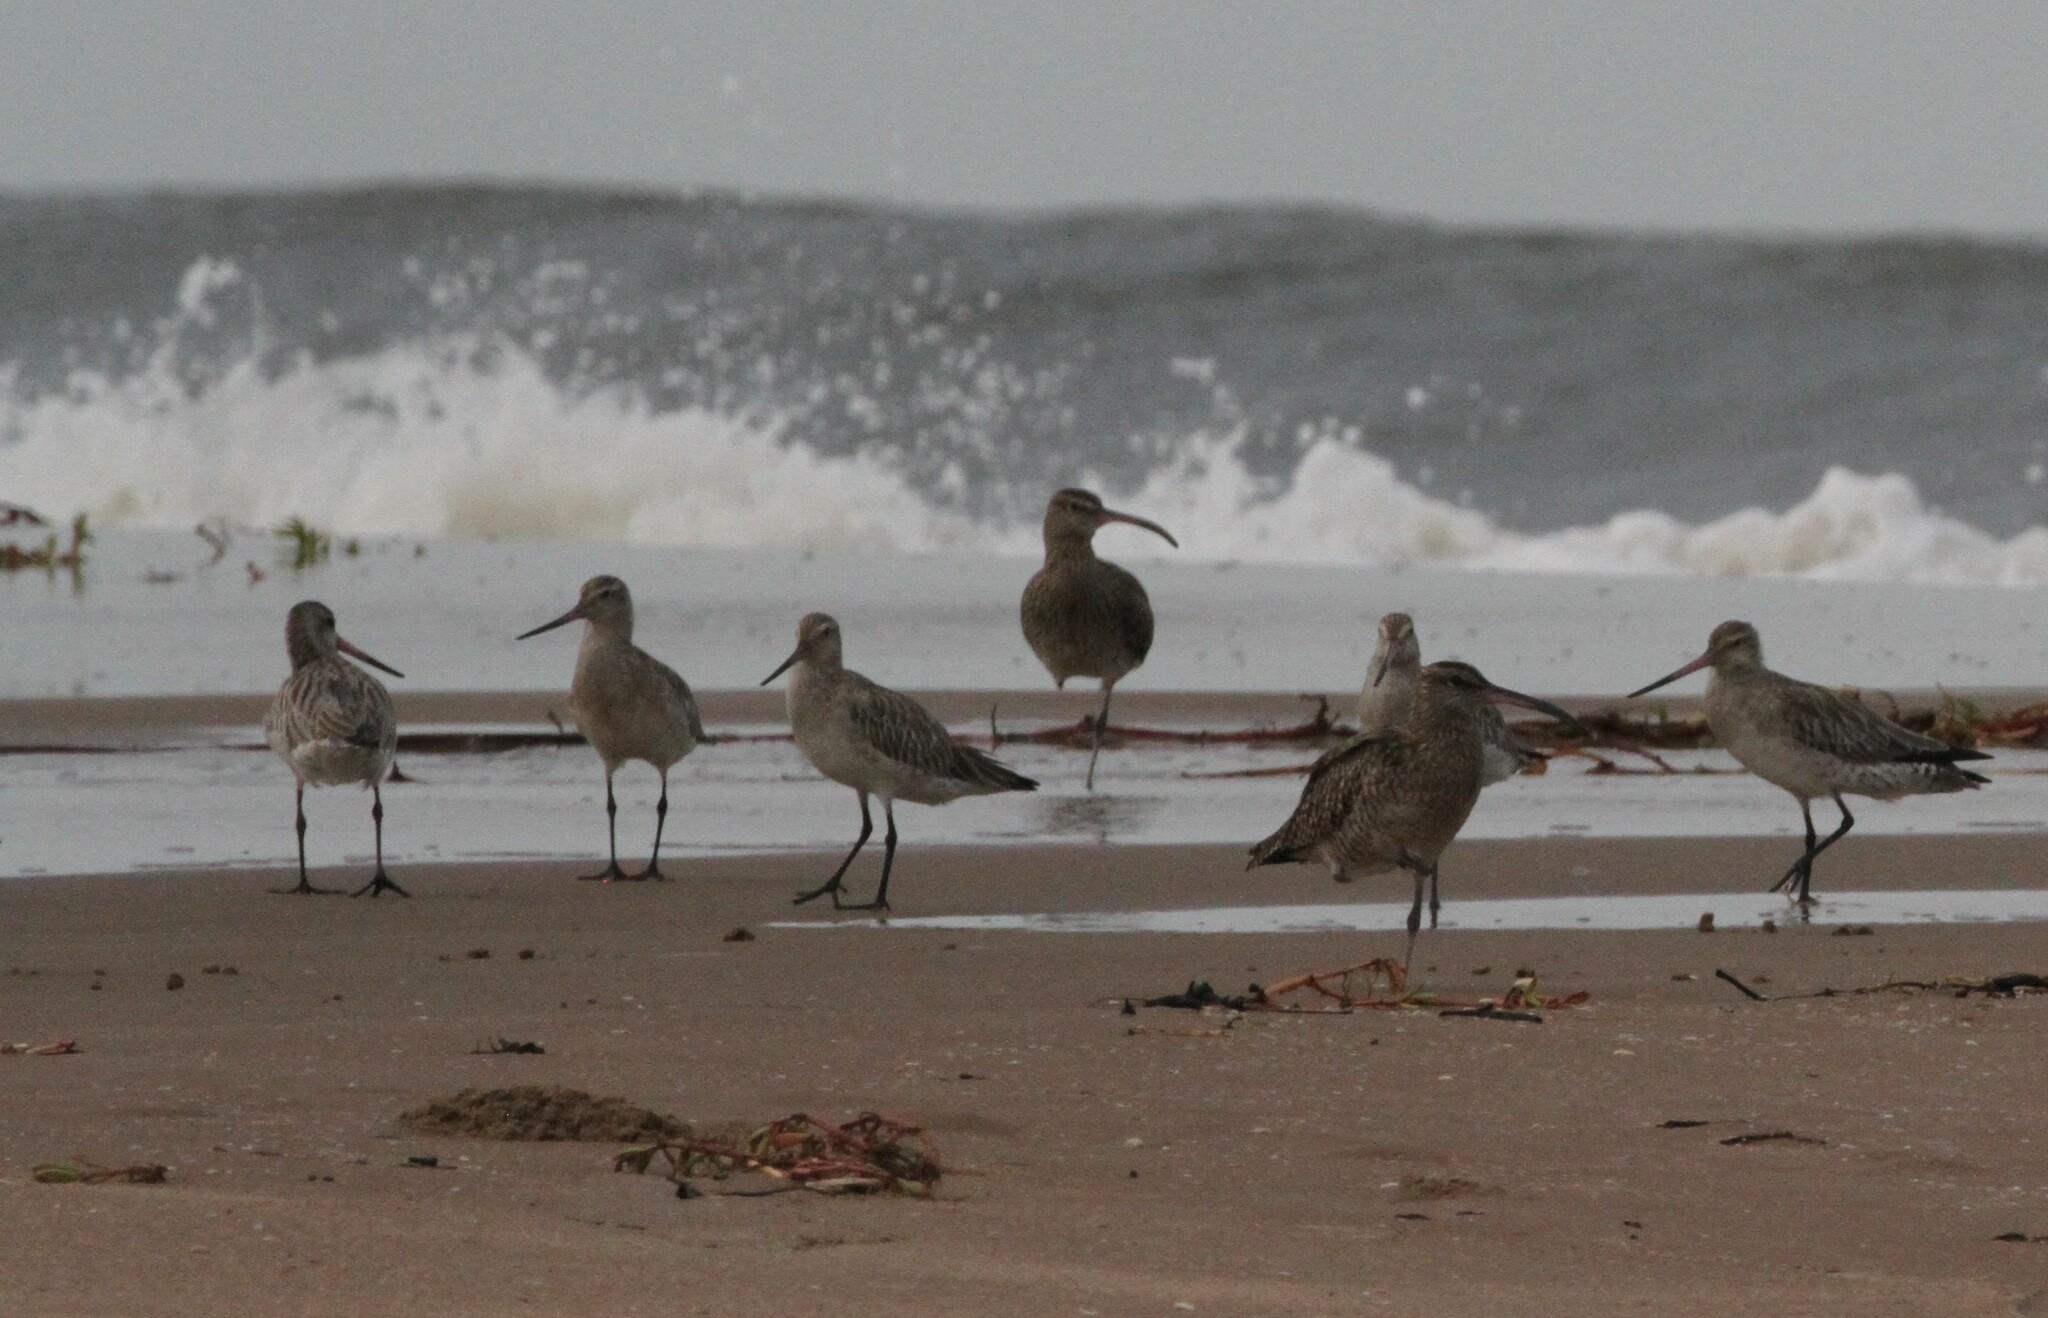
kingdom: Animalia
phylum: Chordata
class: Aves
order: Charadriiformes
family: Scolopacidae
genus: Limosa
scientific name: Limosa lapponica
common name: Bar-tailed godwit
